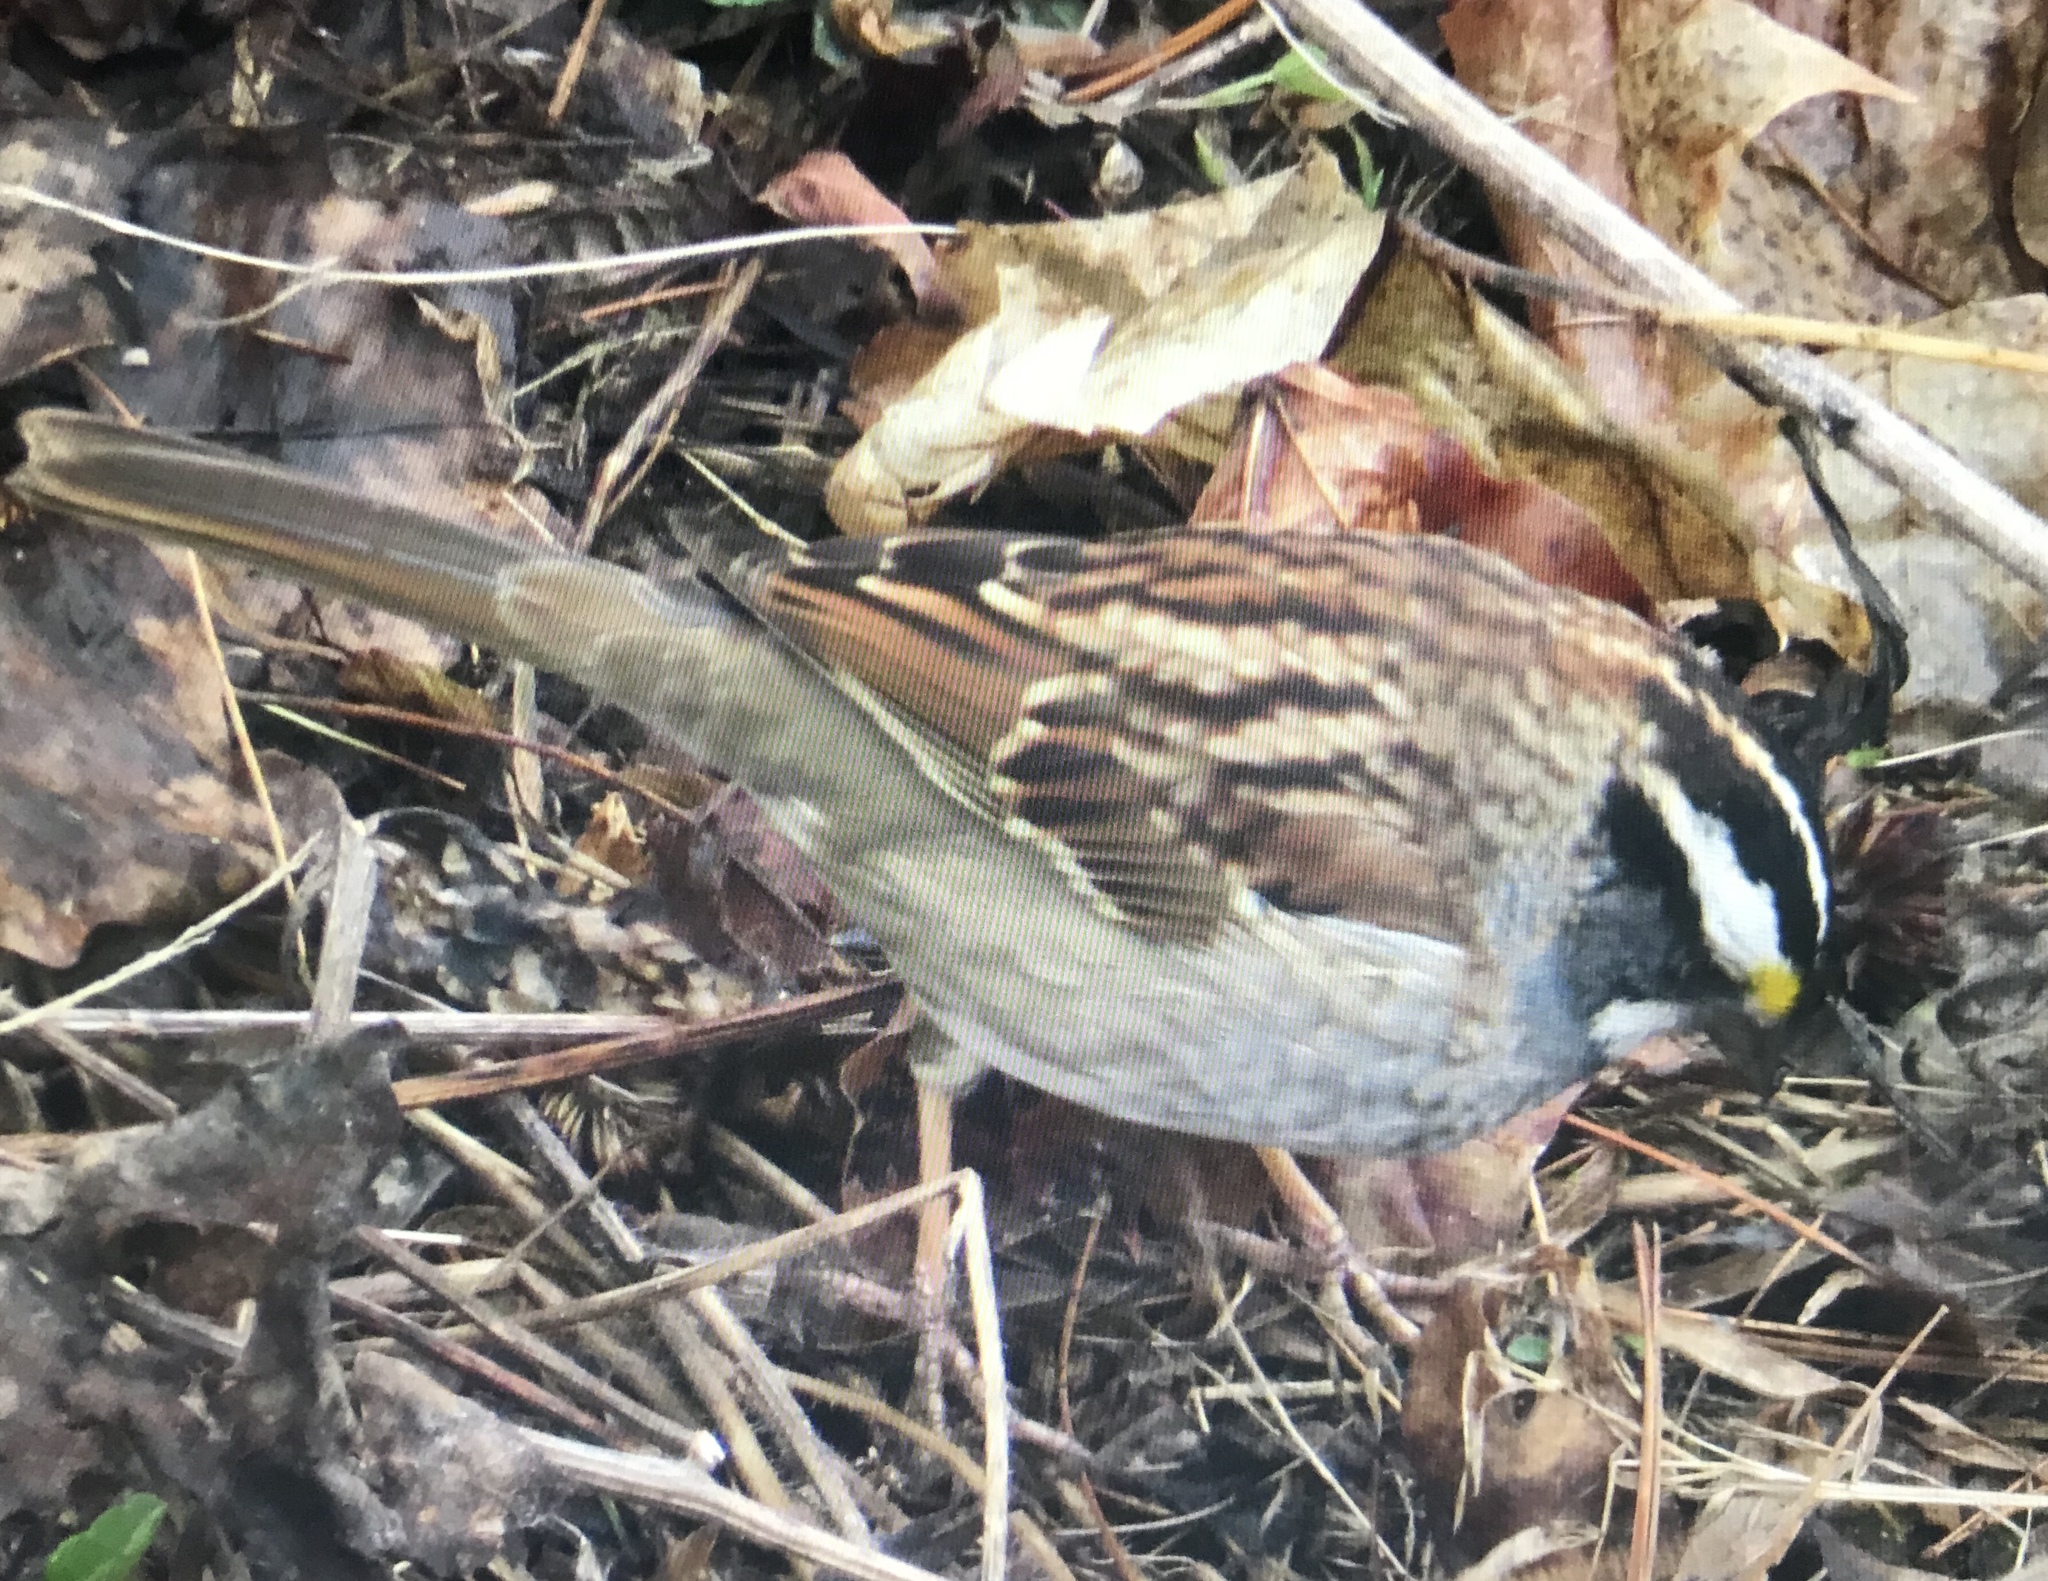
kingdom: Animalia
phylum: Chordata
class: Aves
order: Passeriformes
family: Passerellidae
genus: Zonotrichia
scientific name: Zonotrichia albicollis
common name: White-throated sparrow
